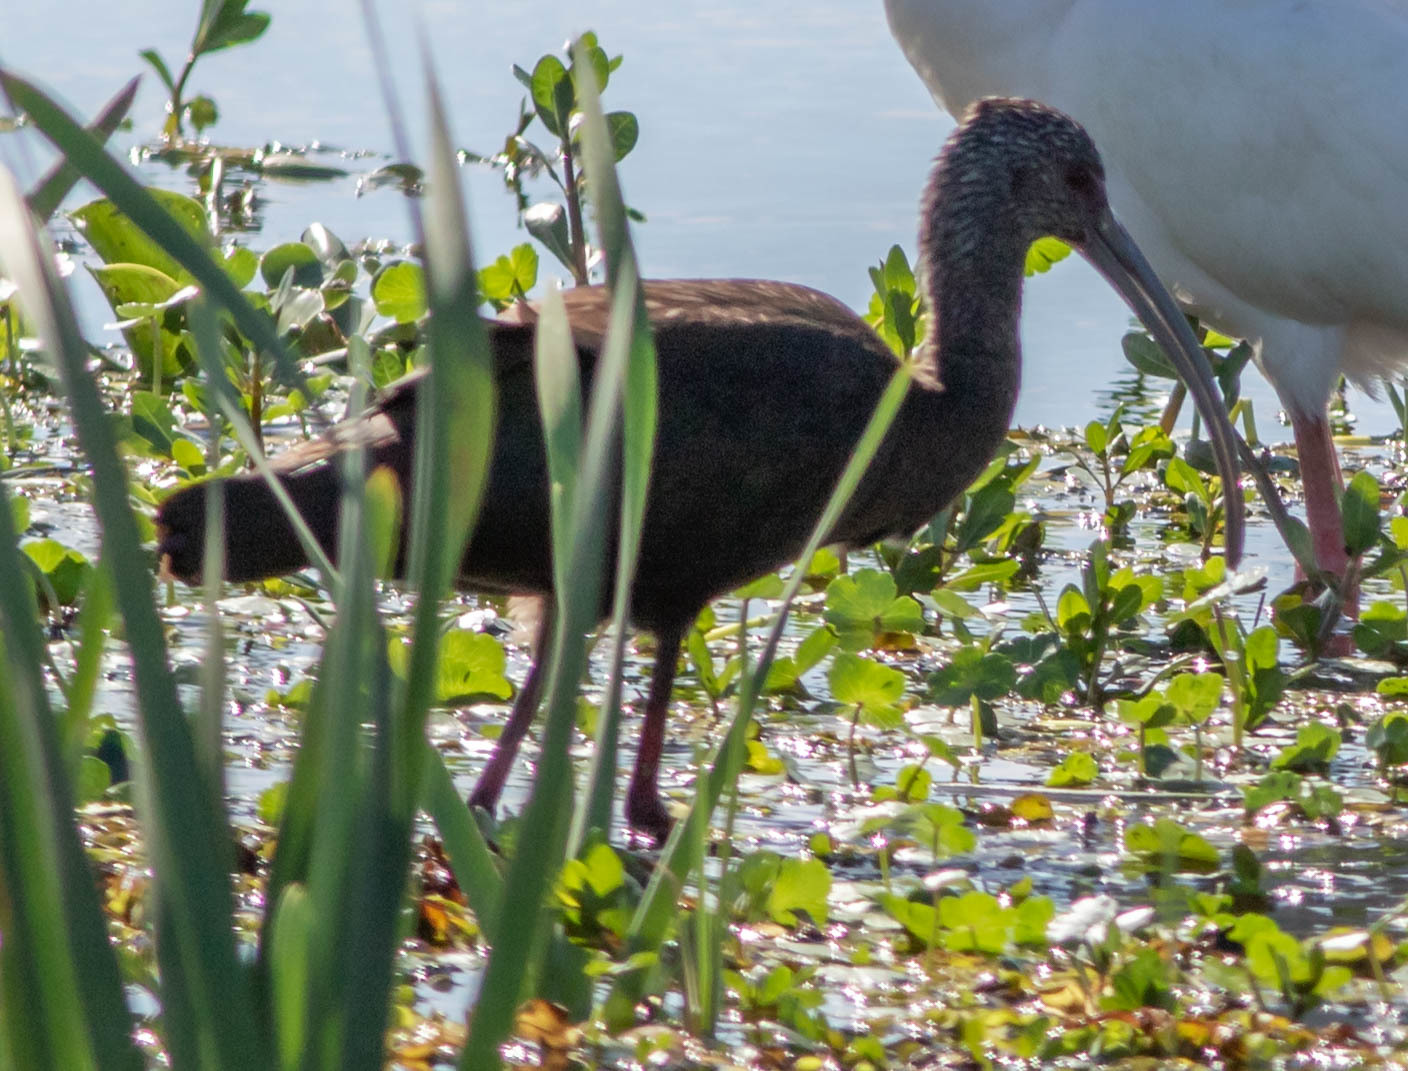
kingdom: Animalia
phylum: Chordata
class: Aves
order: Pelecaniformes
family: Threskiornithidae
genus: Plegadis
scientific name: Plegadis chihi
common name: White-faced ibis
